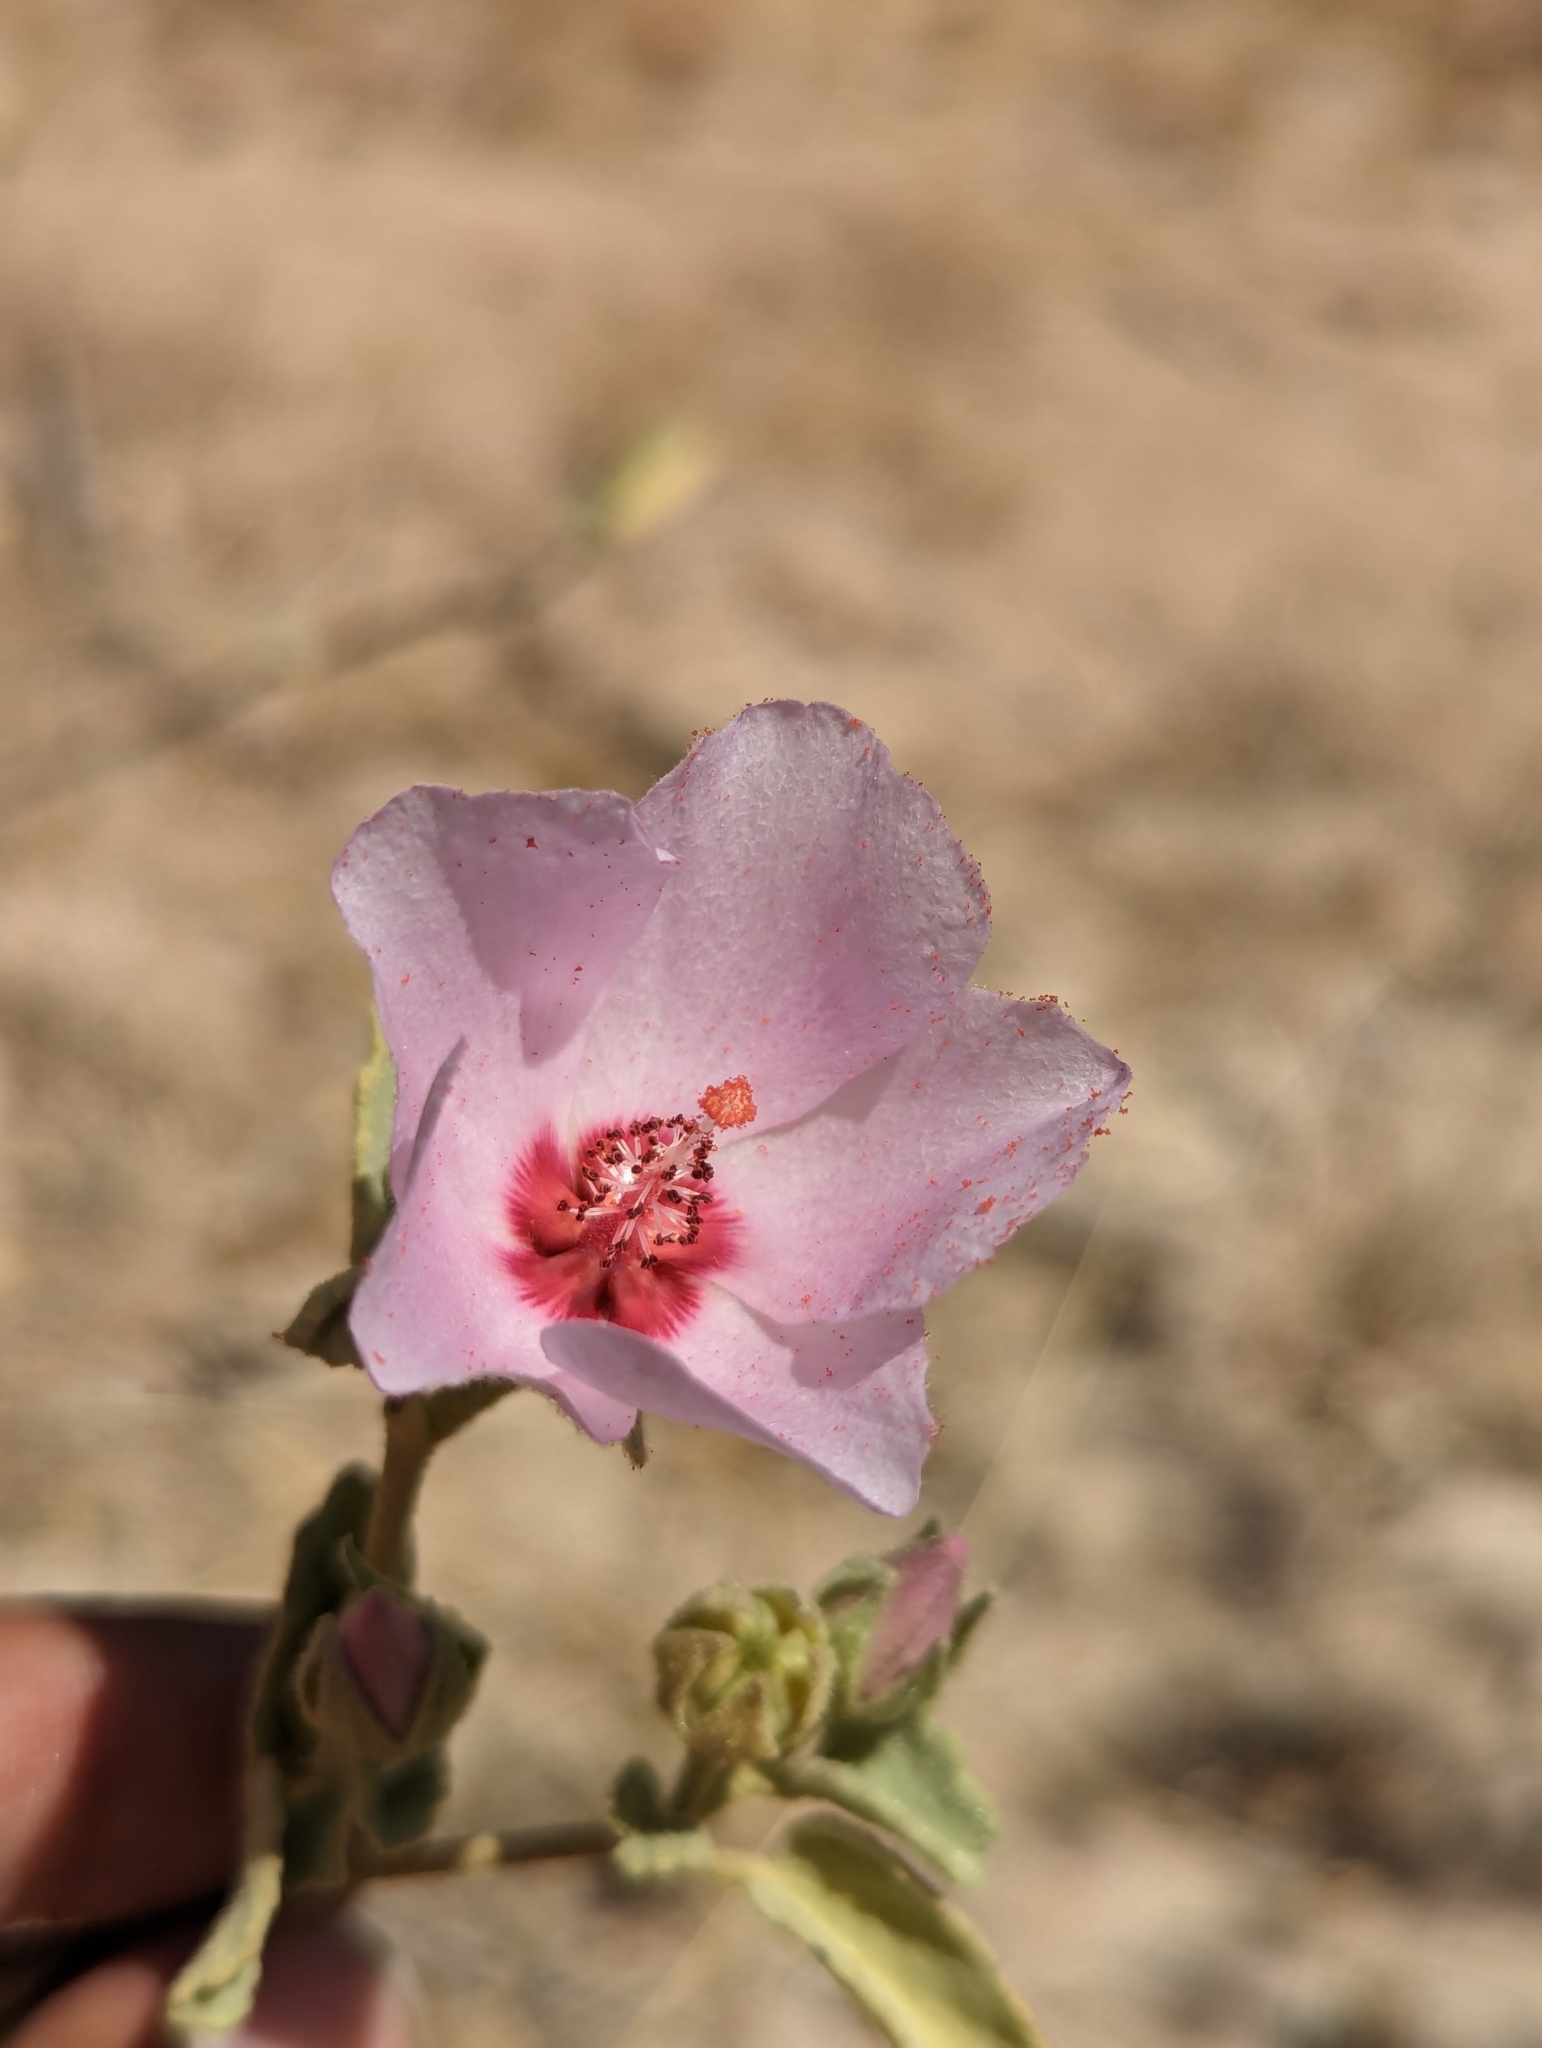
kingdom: Plantae
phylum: Tracheophyta
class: Magnoliopsida
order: Malvales
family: Malvaceae
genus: Hibiscus
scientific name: Hibiscus denudatus
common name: Paleface
